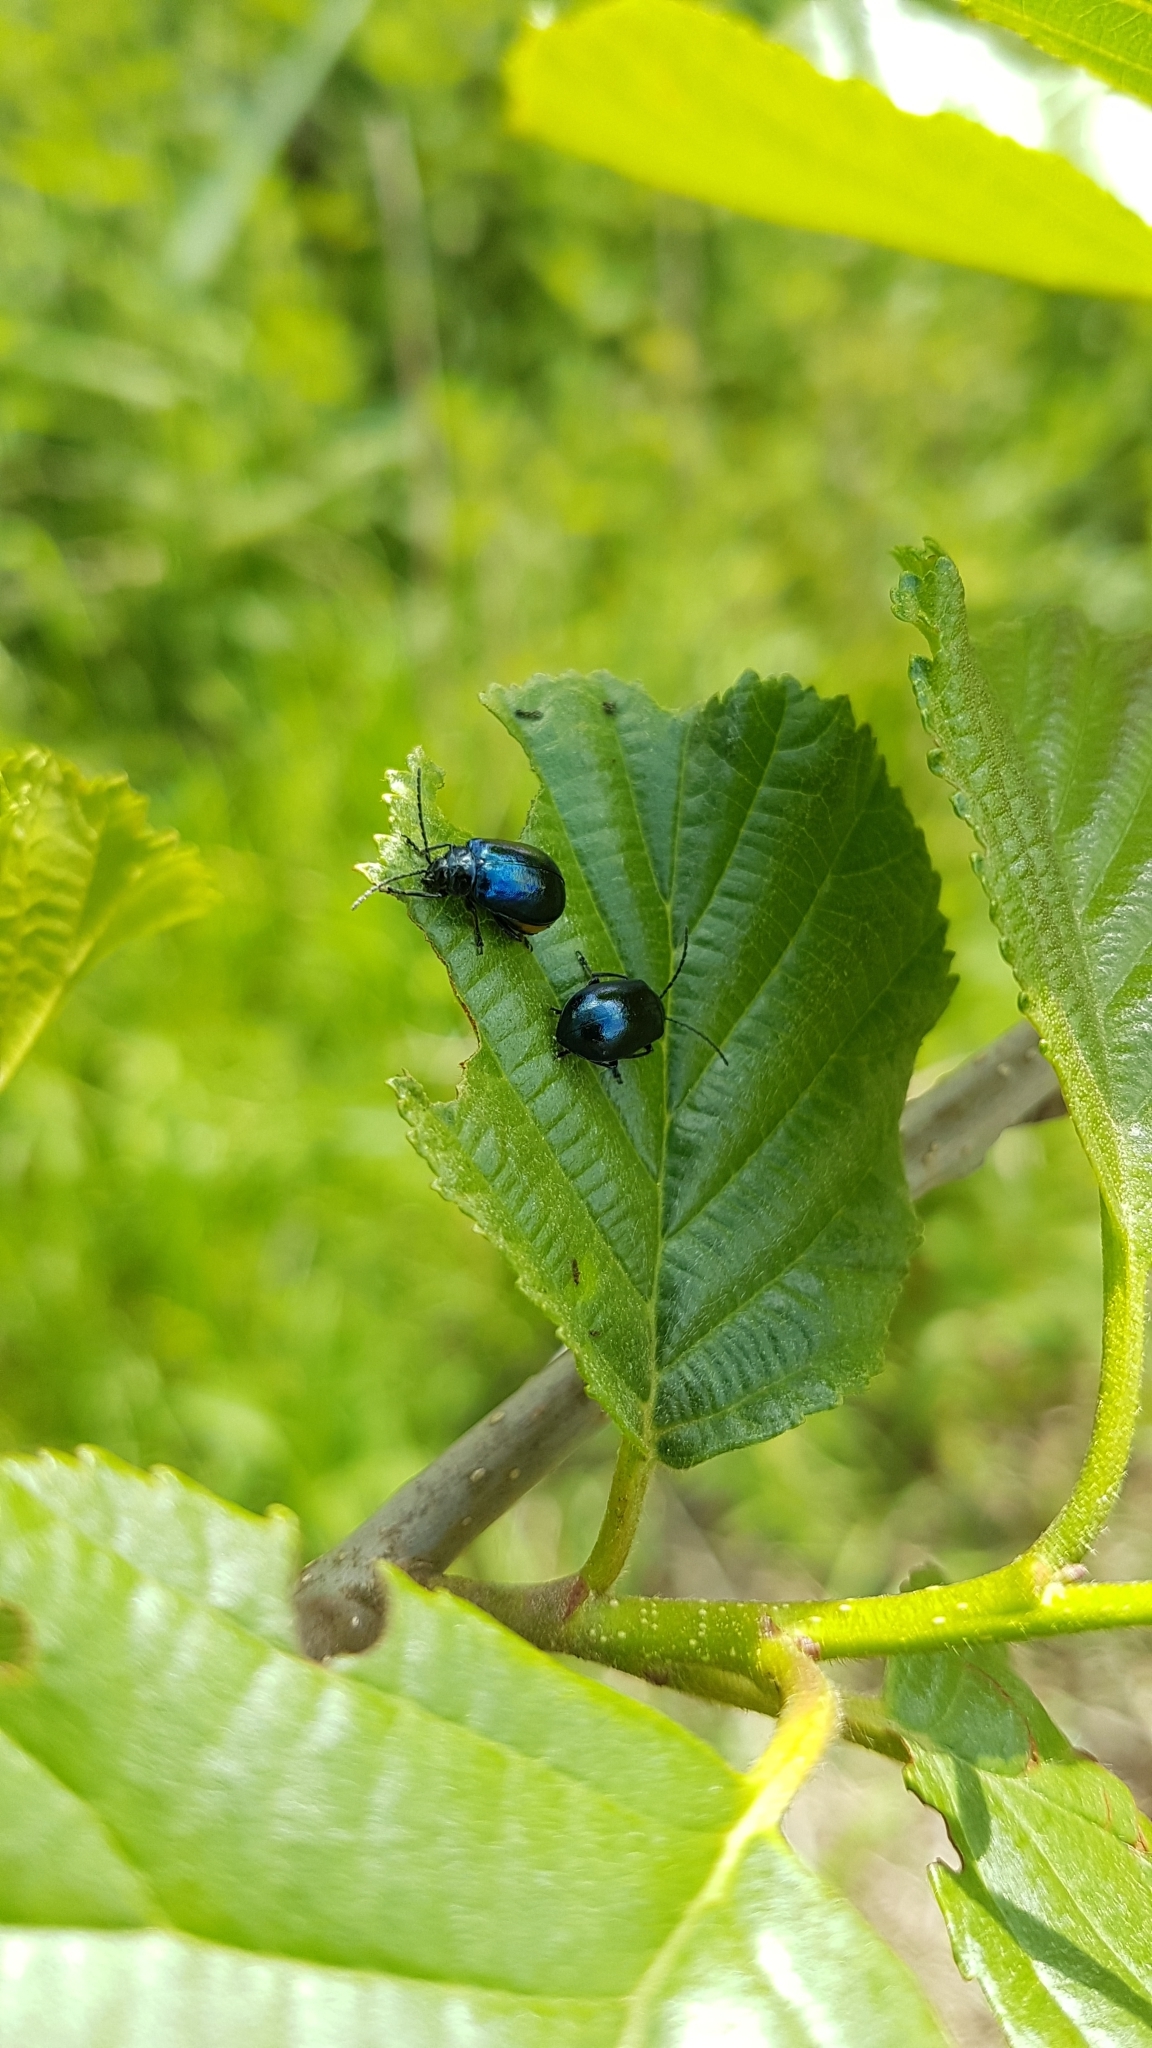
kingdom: Animalia
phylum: Arthropoda
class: Insecta
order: Coleoptera
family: Chrysomelidae
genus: Agelastica
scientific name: Agelastica alni
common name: Alder leaf beetle
